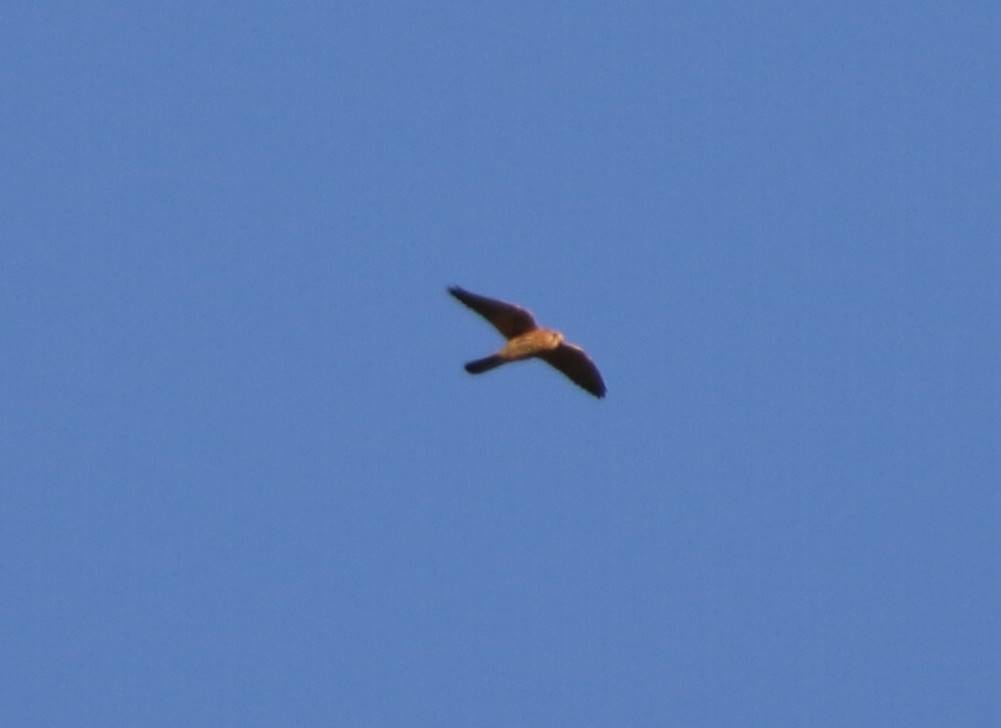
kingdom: Animalia
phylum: Chordata
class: Aves
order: Falconiformes
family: Falconidae
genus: Falco
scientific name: Falco tinnunculus
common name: Common kestrel
